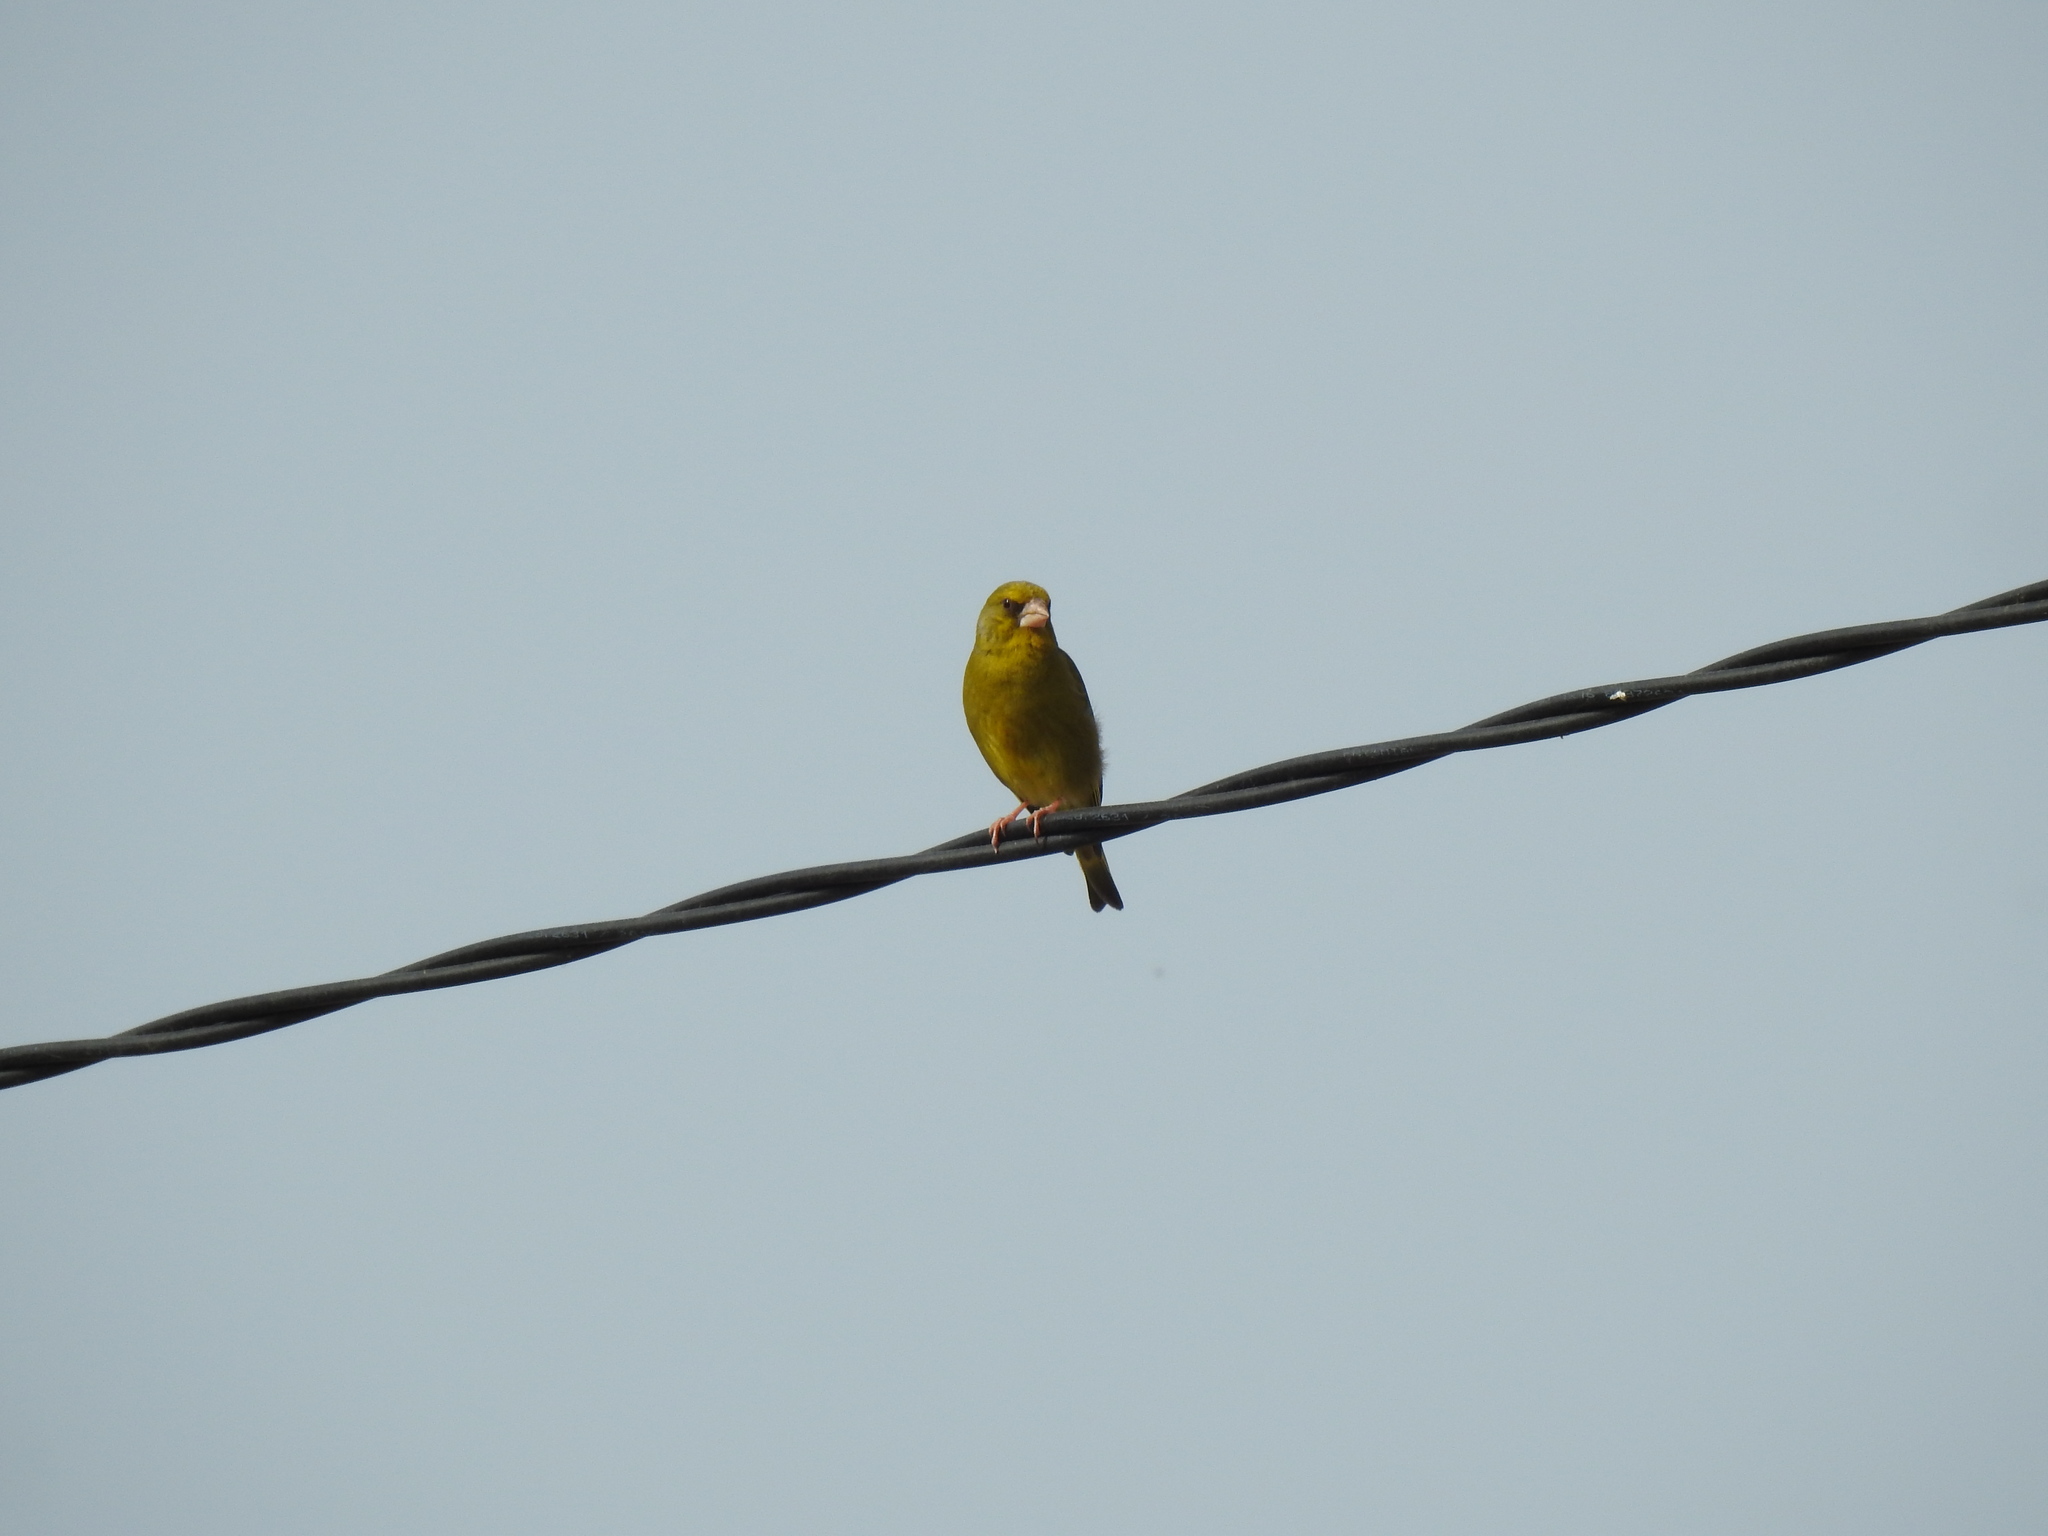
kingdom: Plantae
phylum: Tracheophyta
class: Liliopsida
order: Poales
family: Poaceae
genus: Chloris
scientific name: Chloris chloris
